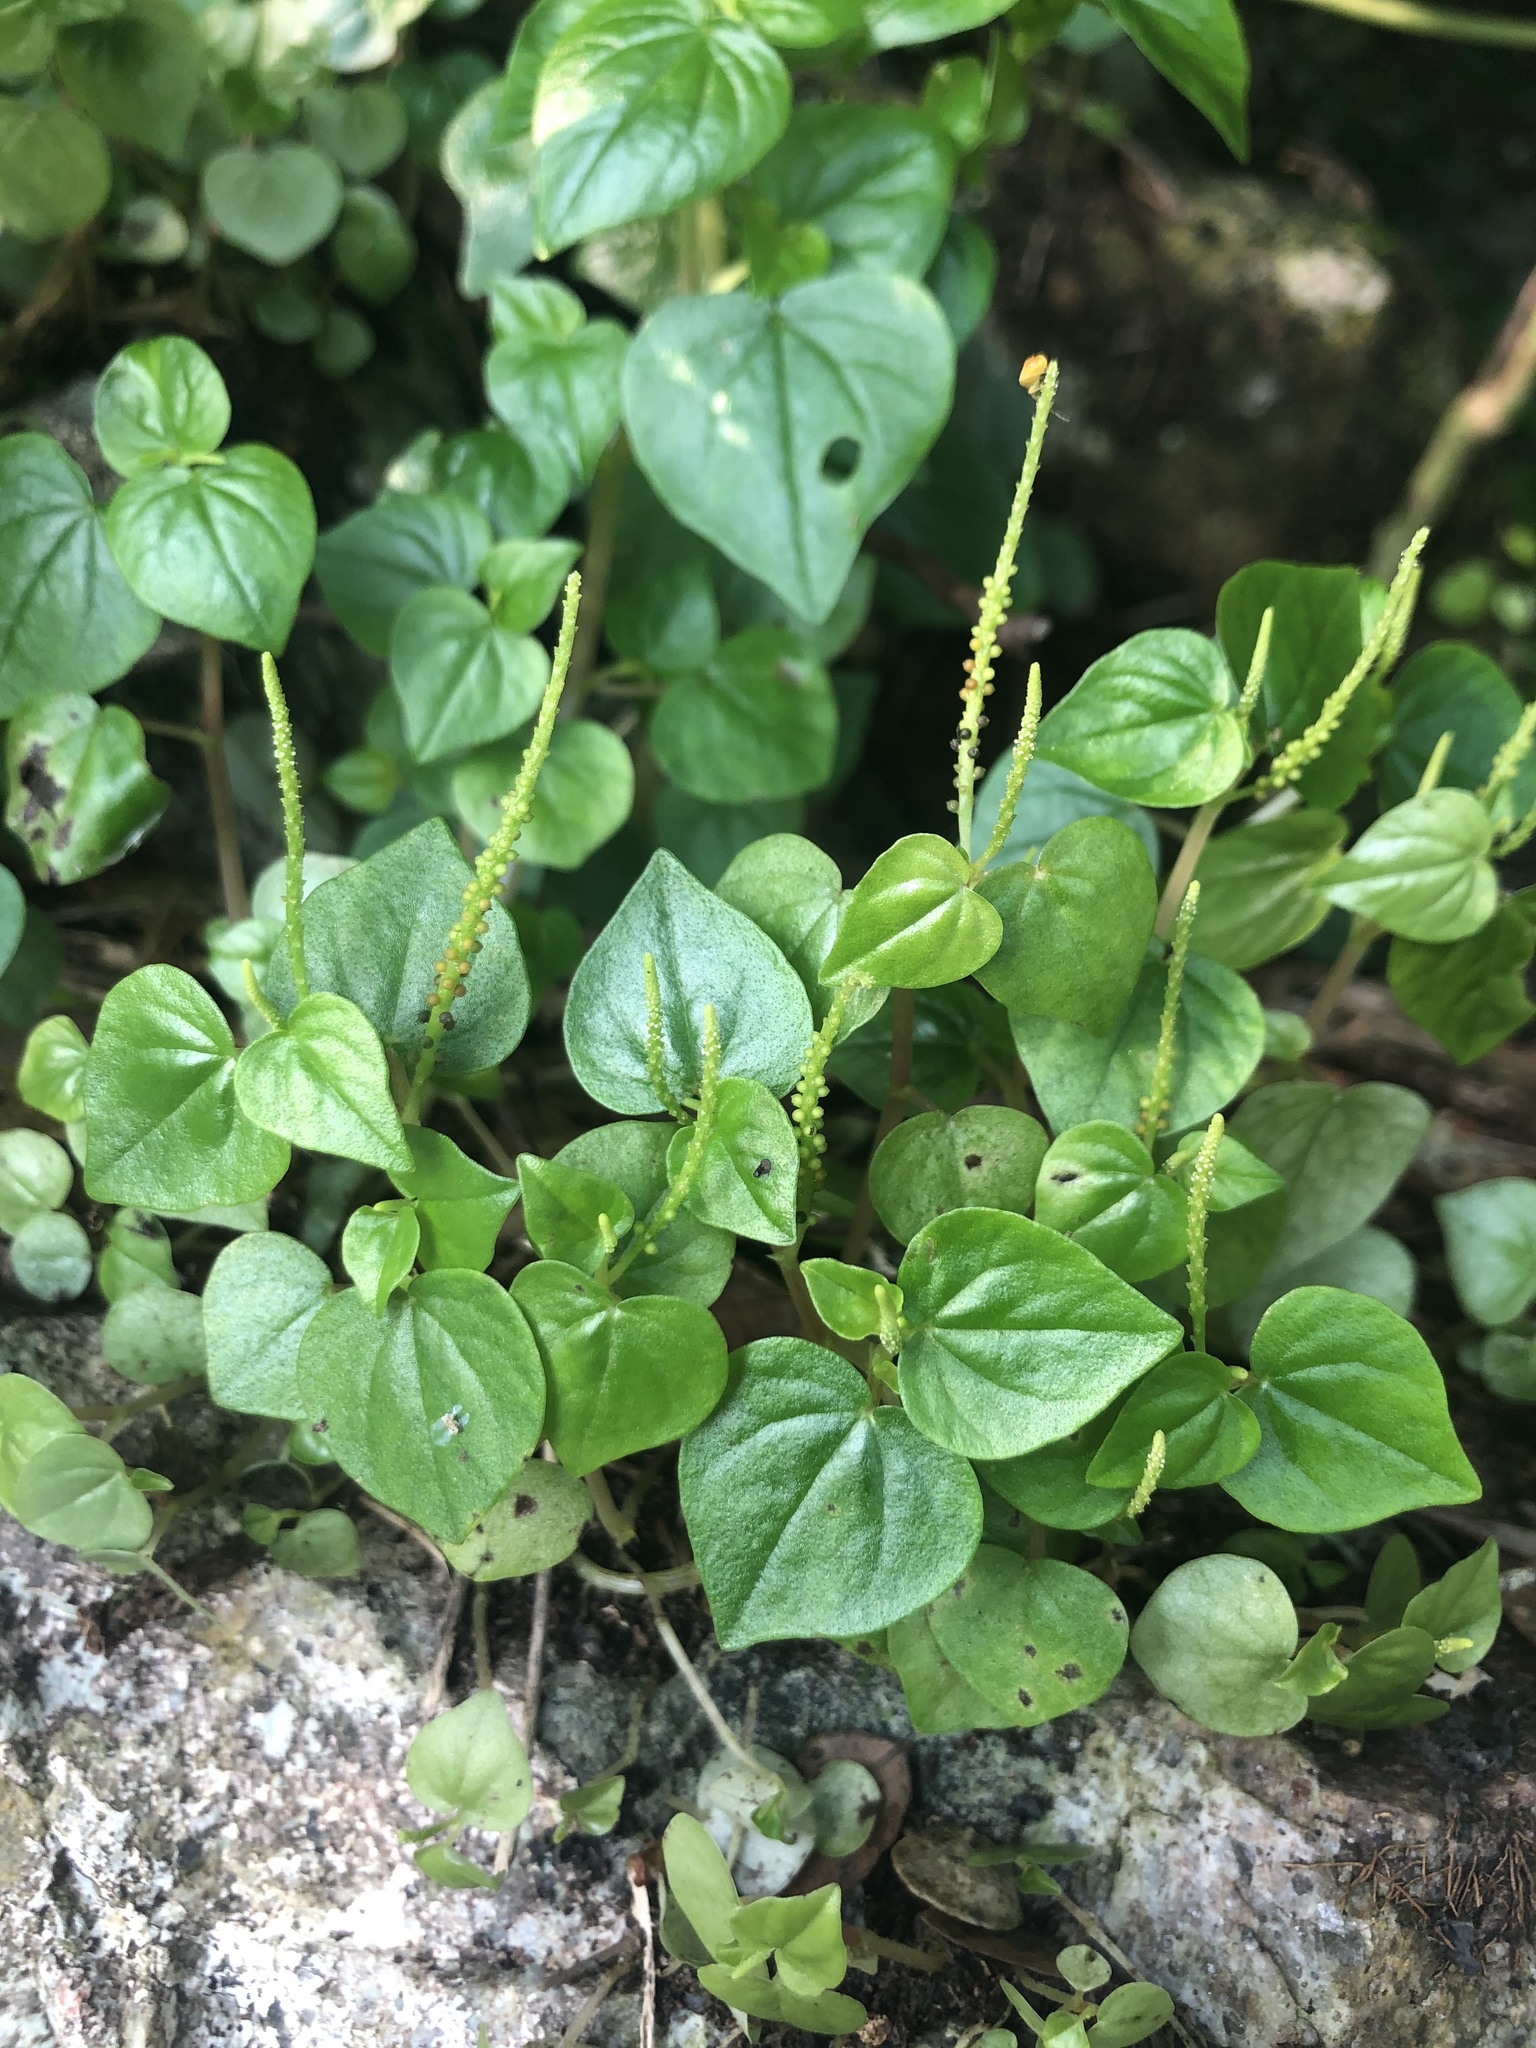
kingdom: Plantae
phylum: Tracheophyta
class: Magnoliopsida
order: Piperales
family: Piperaceae
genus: Peperomia
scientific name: Peperomia pellucida
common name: Man to man
